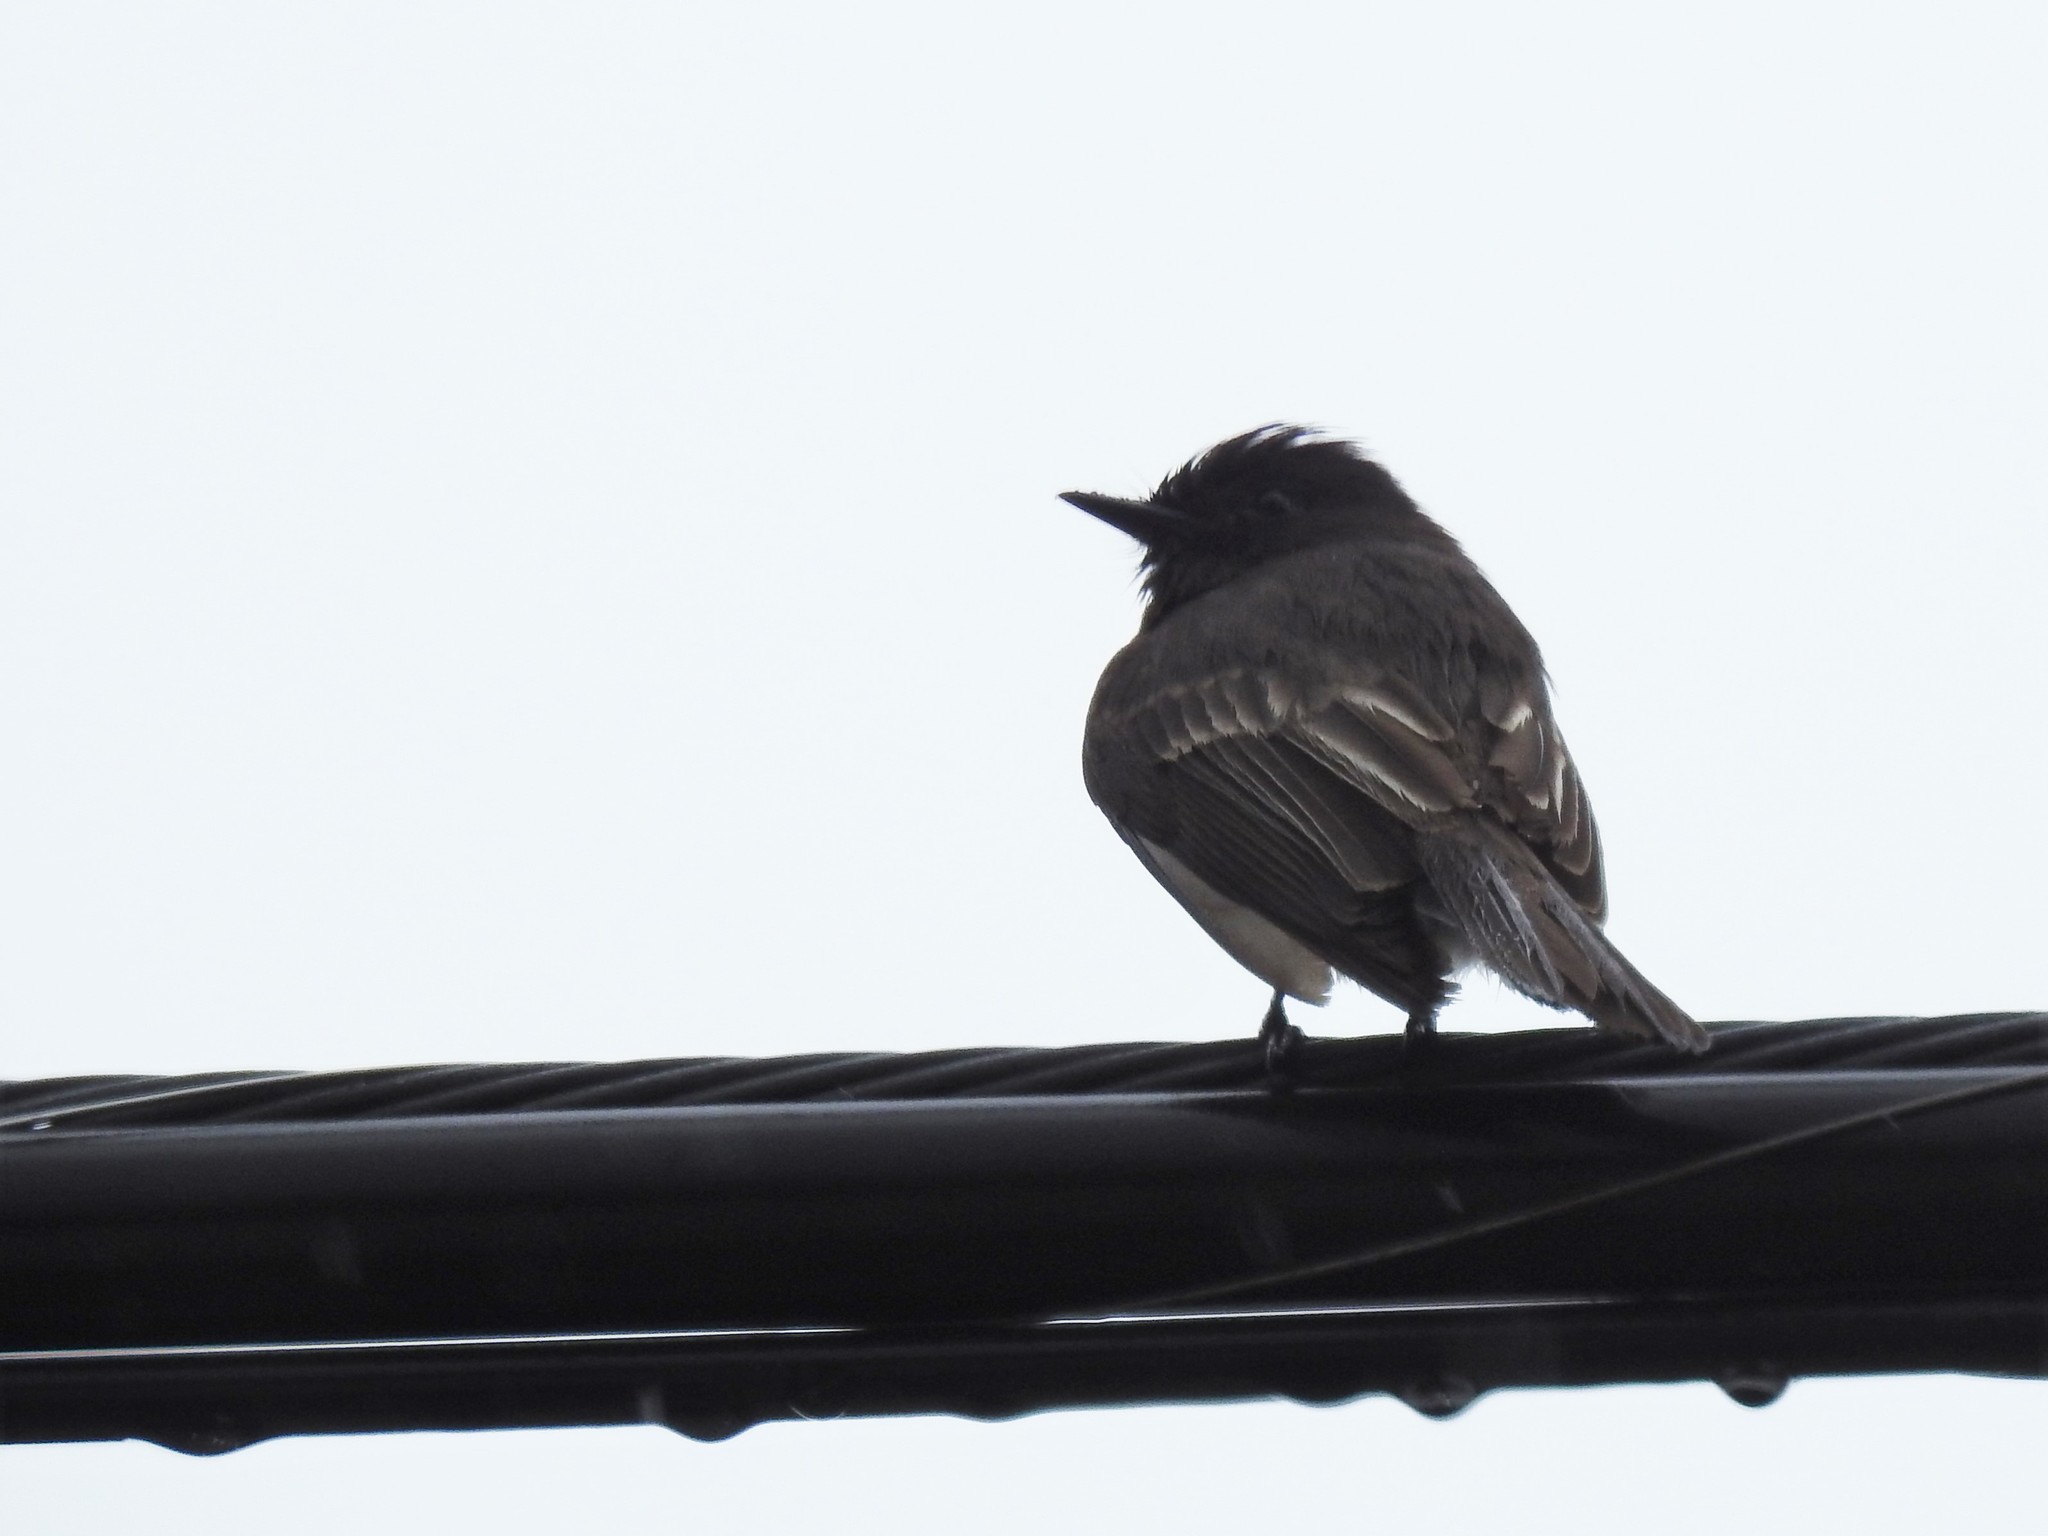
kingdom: Animalia
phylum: Chordata
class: Aves
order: Passeriformes
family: Tyrannidae
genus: Sayornis
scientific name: Sayornis nigricans
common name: Black phoebe
